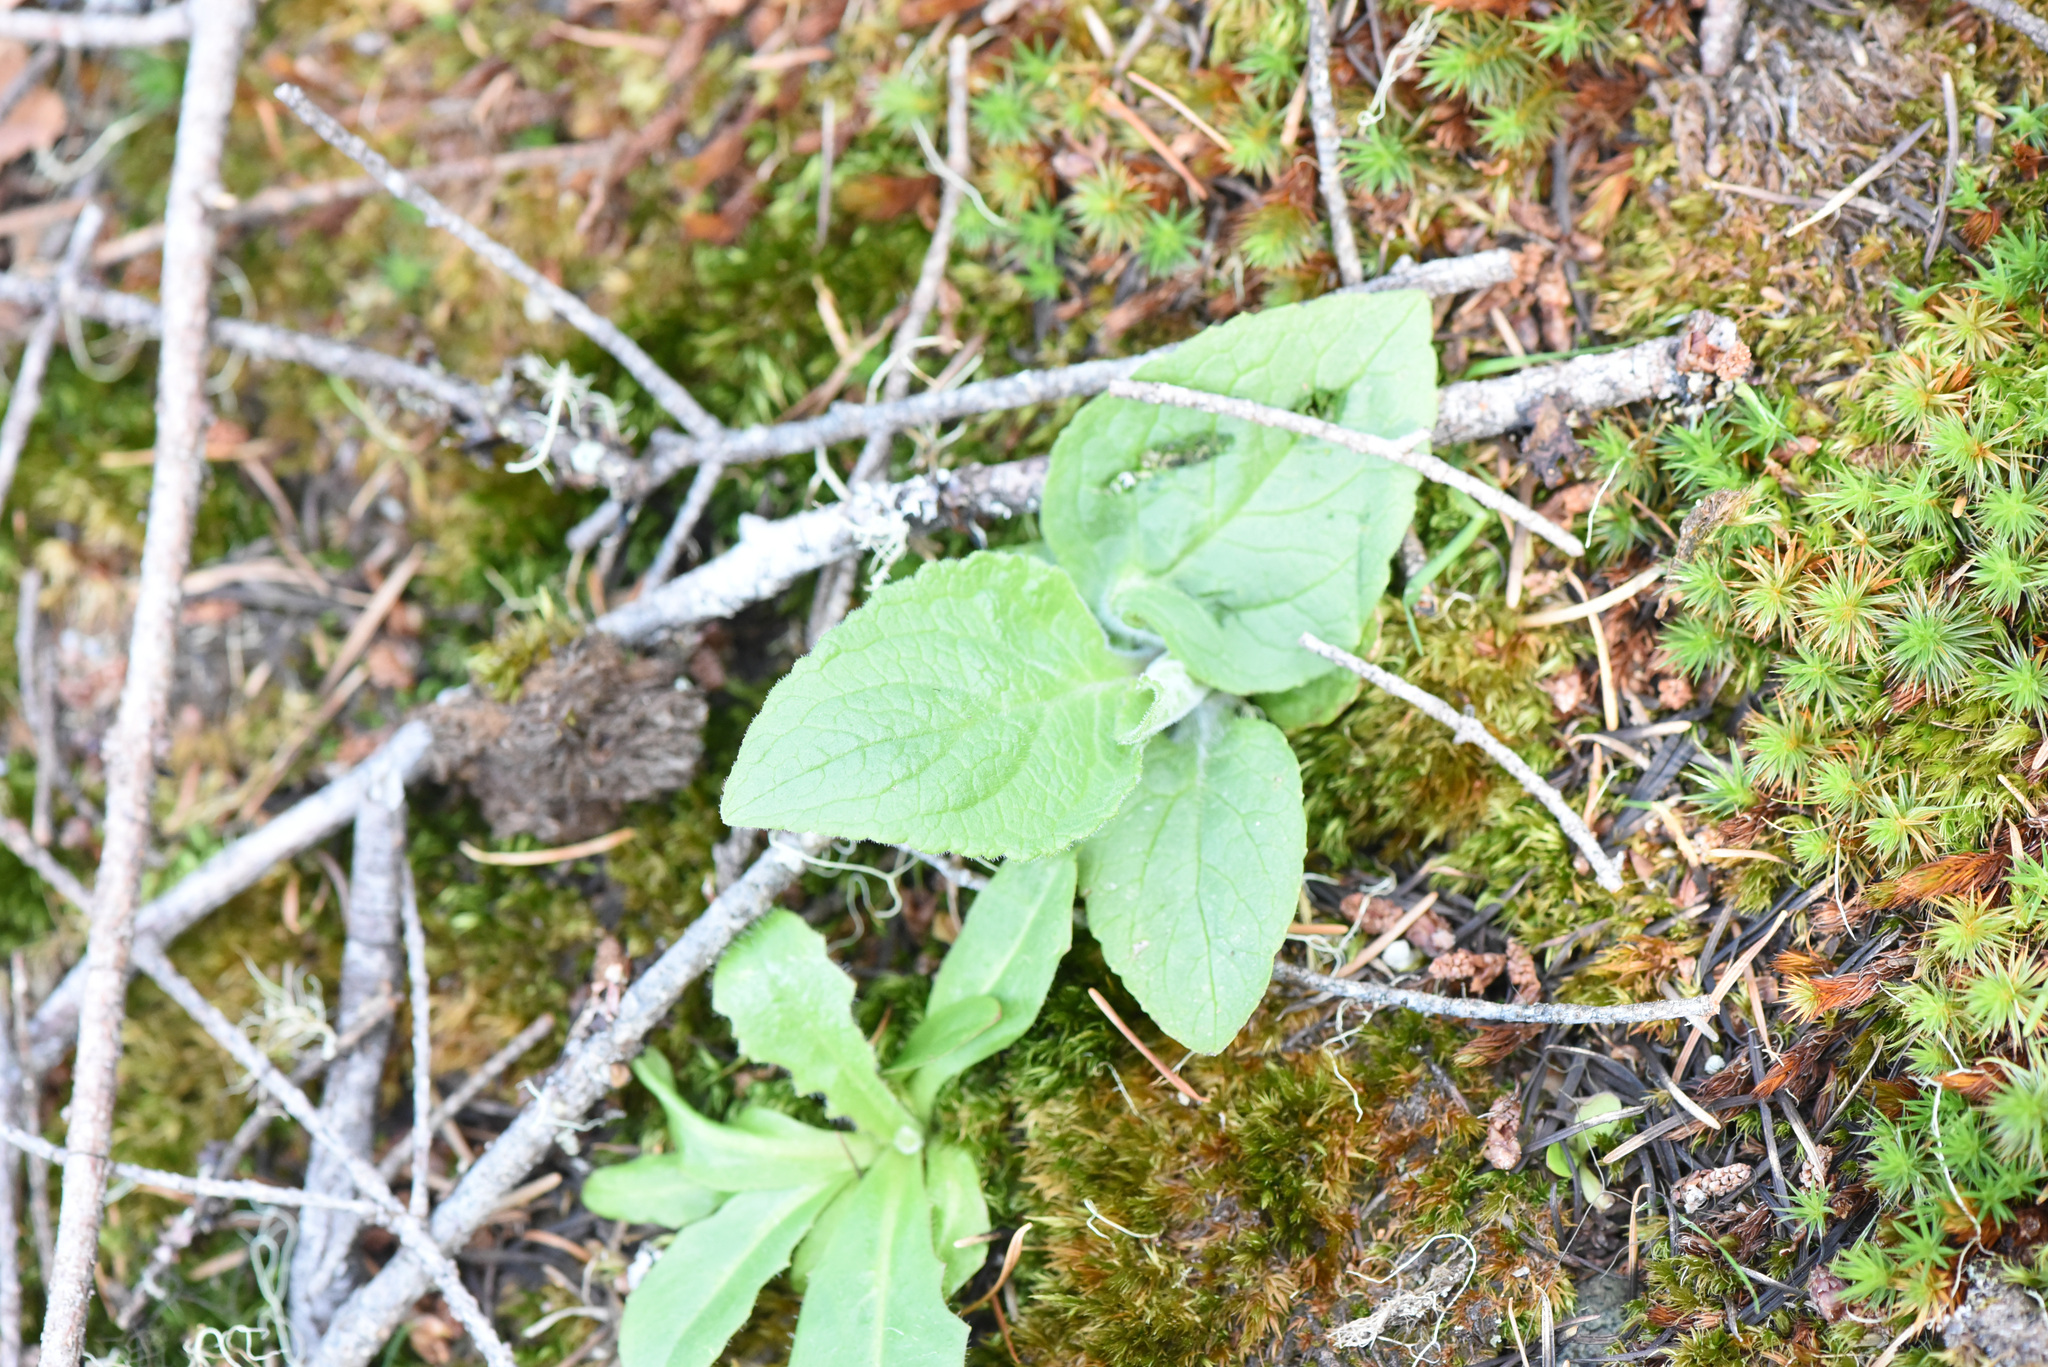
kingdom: Plantae
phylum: Tracheophyta
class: Magnoliopsida
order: Lamiales
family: Plantaginaceae
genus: Digitalis
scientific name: Digitalis purpurea
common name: Foxglove
